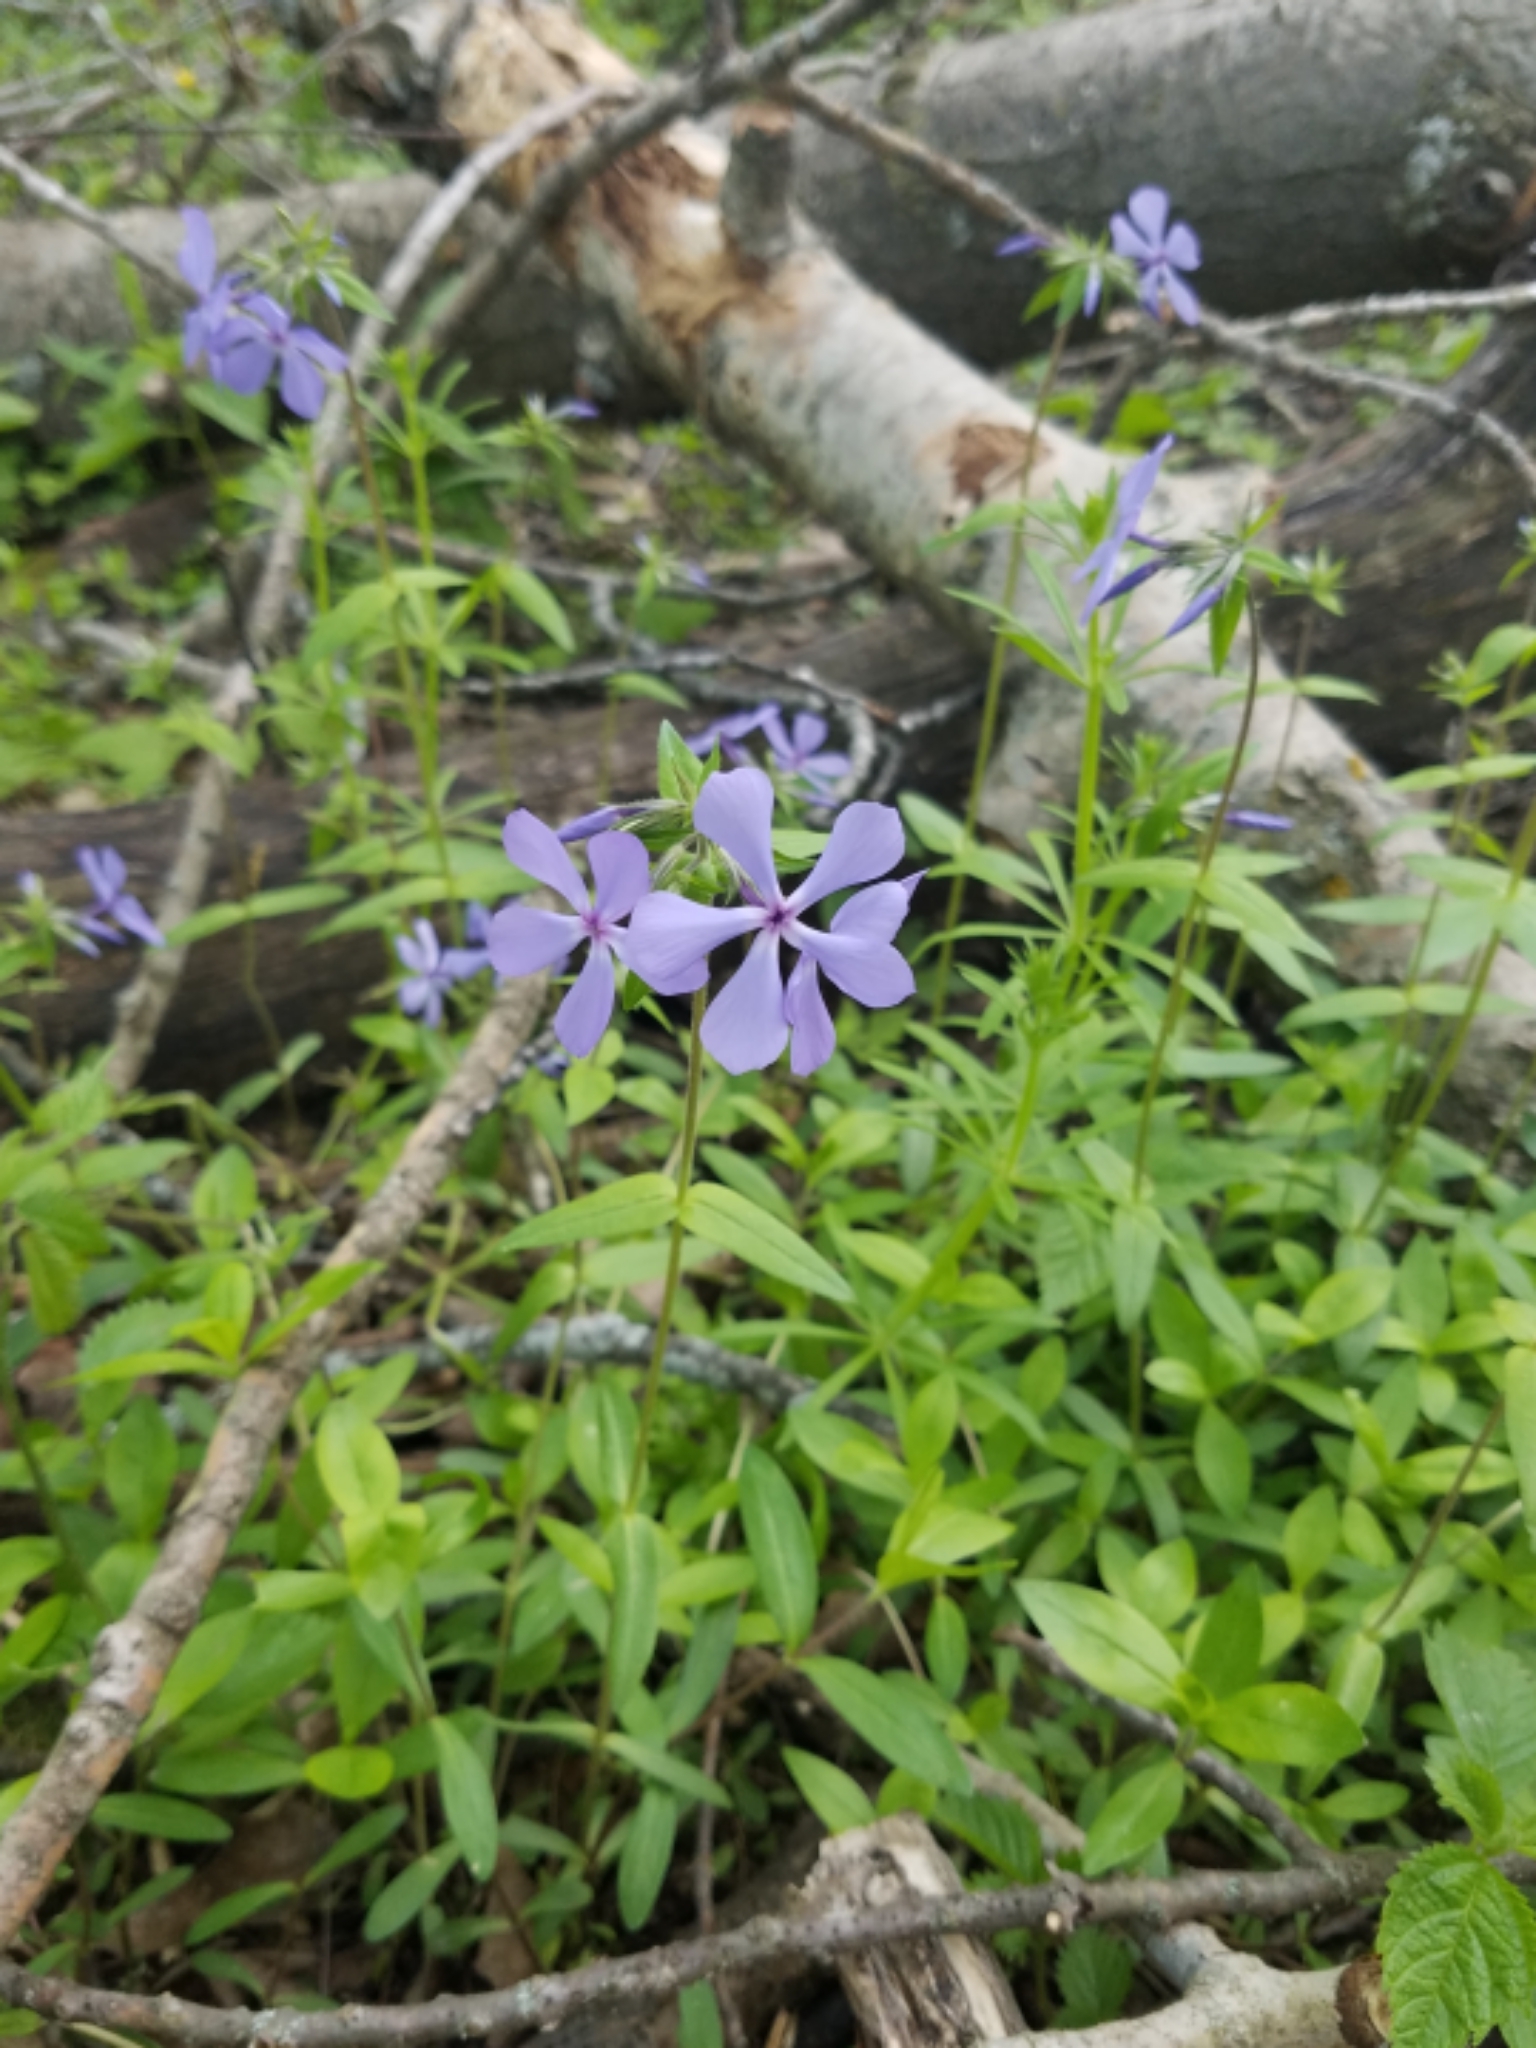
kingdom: Plantae
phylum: Tracheophyta
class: Magnoliopsida
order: Ericales
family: Polemoniaceae
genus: Phlox
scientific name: Phlox divaricata
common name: Blue phlox
